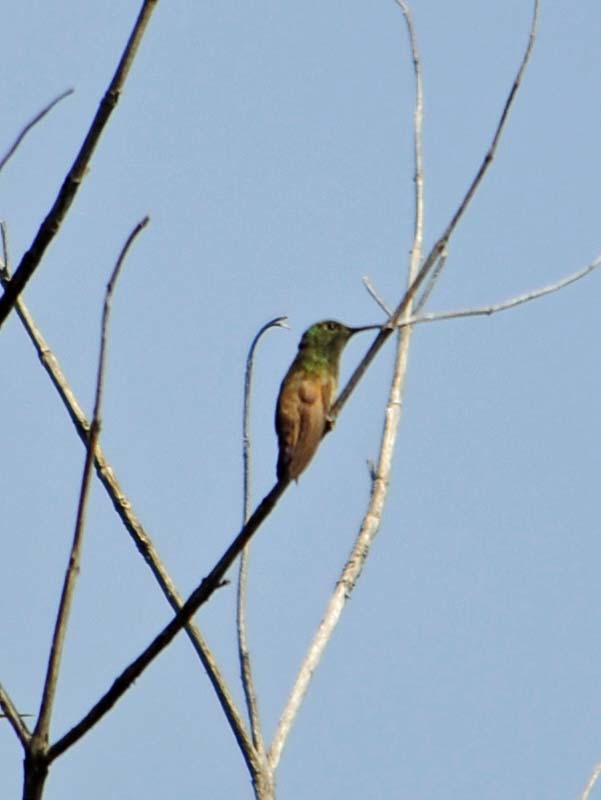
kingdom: Animalia
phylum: Chordata
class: Aves
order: Apodiformes
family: Trochilidae
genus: Saucerottia
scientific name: Saucerottia beryllina
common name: Berylline hummingbird
